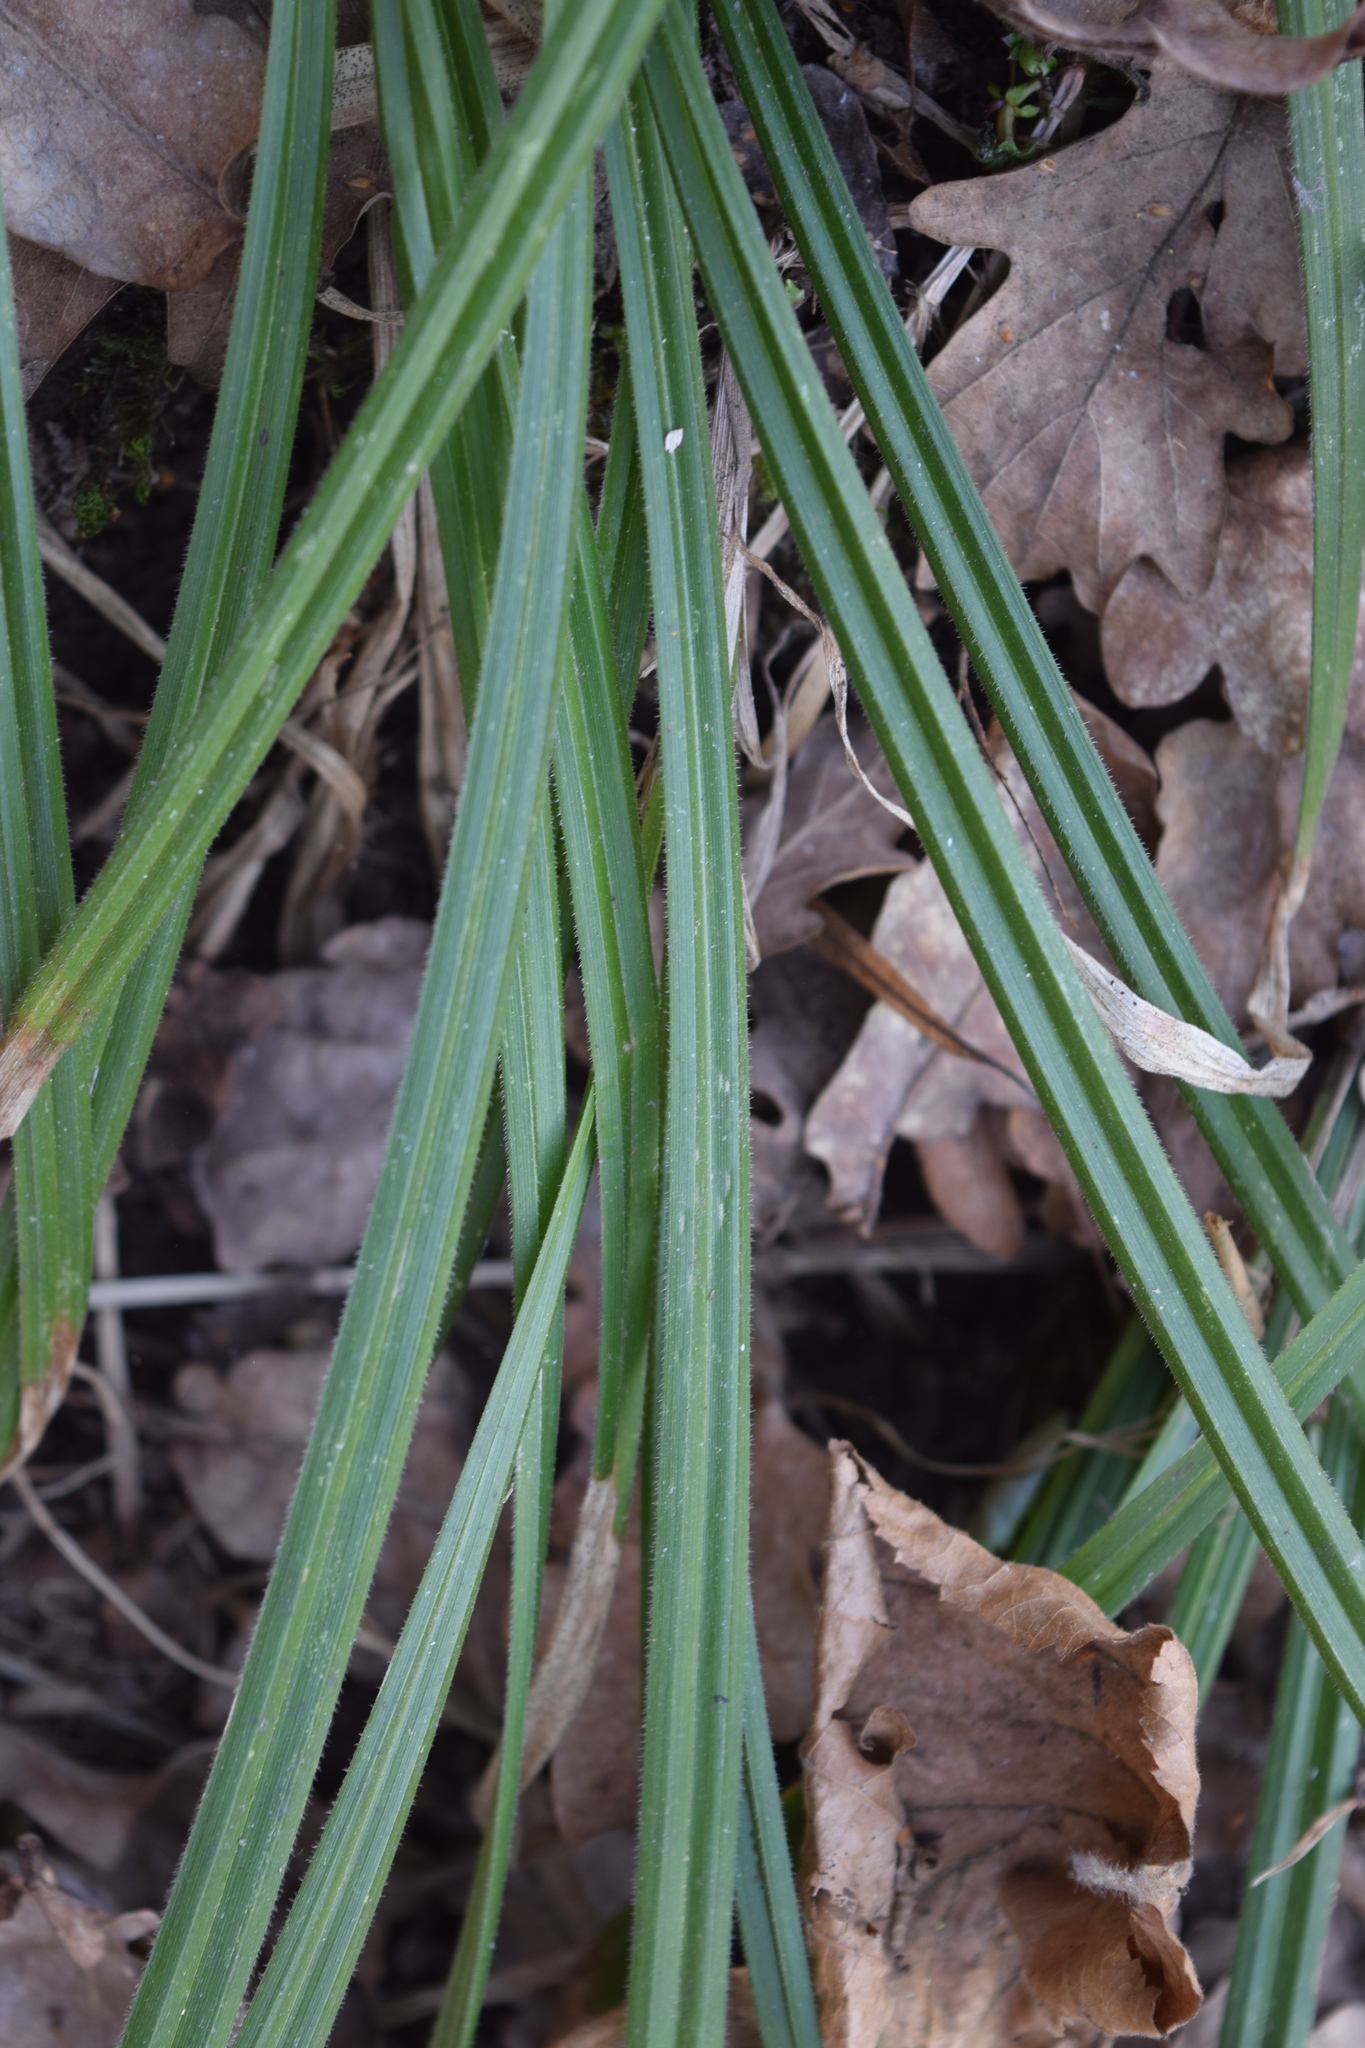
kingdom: Plantae
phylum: Tracheophyta
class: Liliopsida
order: Poales
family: Cyperaceae
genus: Carex
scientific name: Carex pilosa
